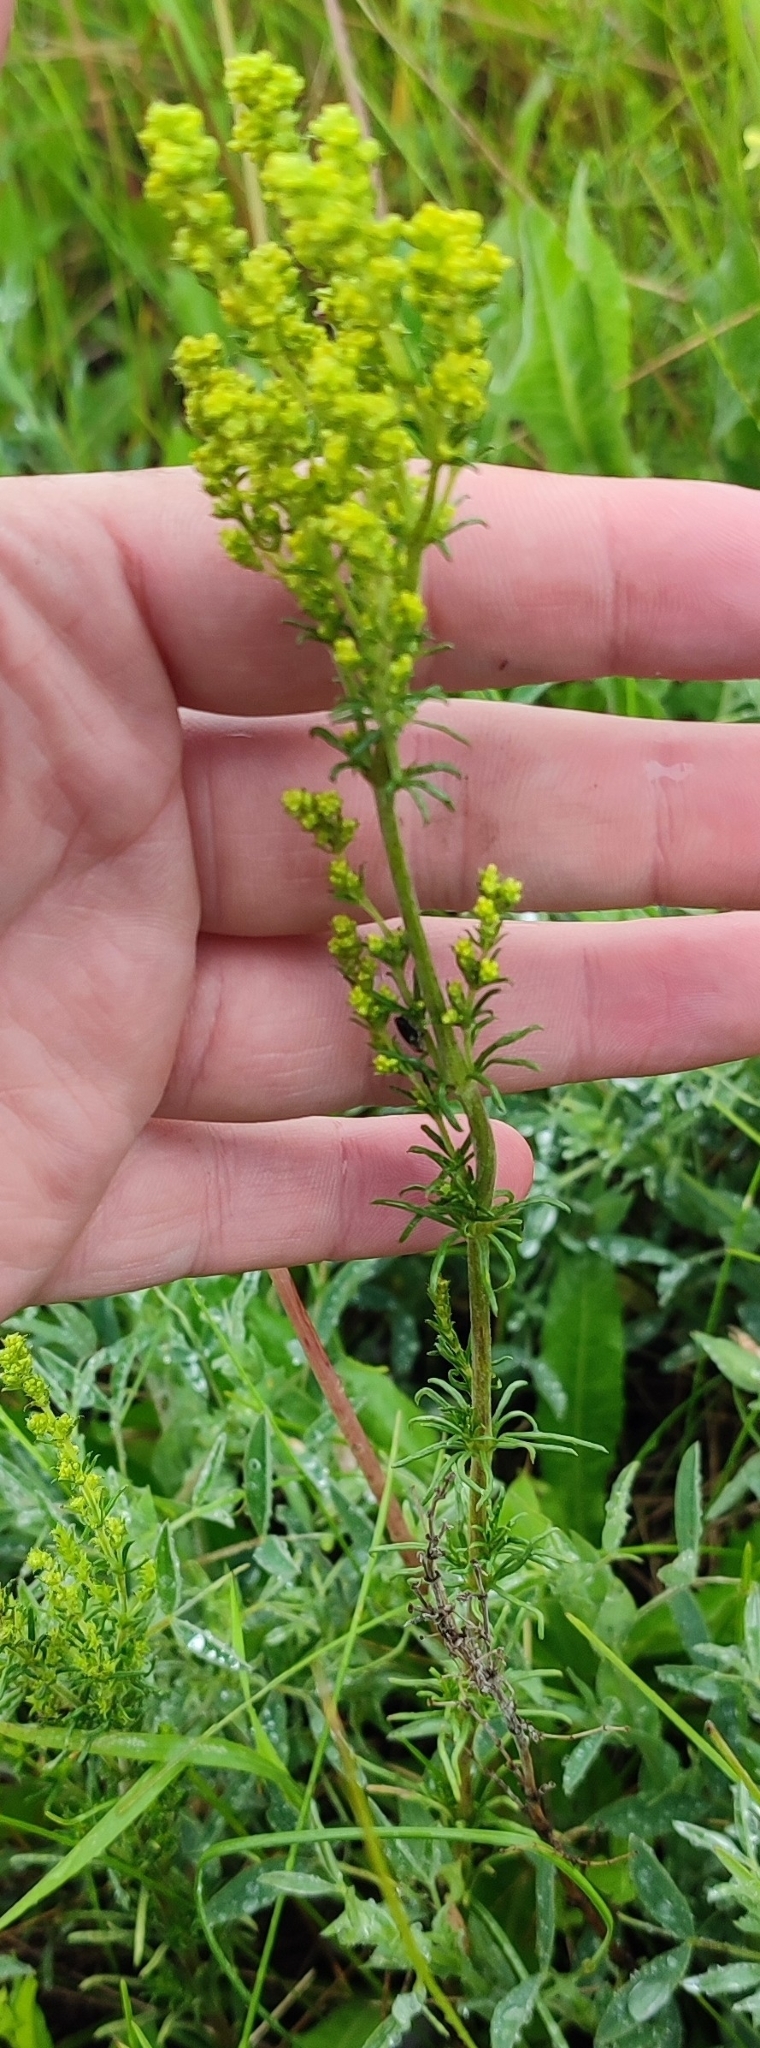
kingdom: Plantae
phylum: Tracheophyta
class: Magnoliopsida
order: Gentianales
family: Rubiaceae
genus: Galium
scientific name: Galium verum
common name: Lady's bedstraw
